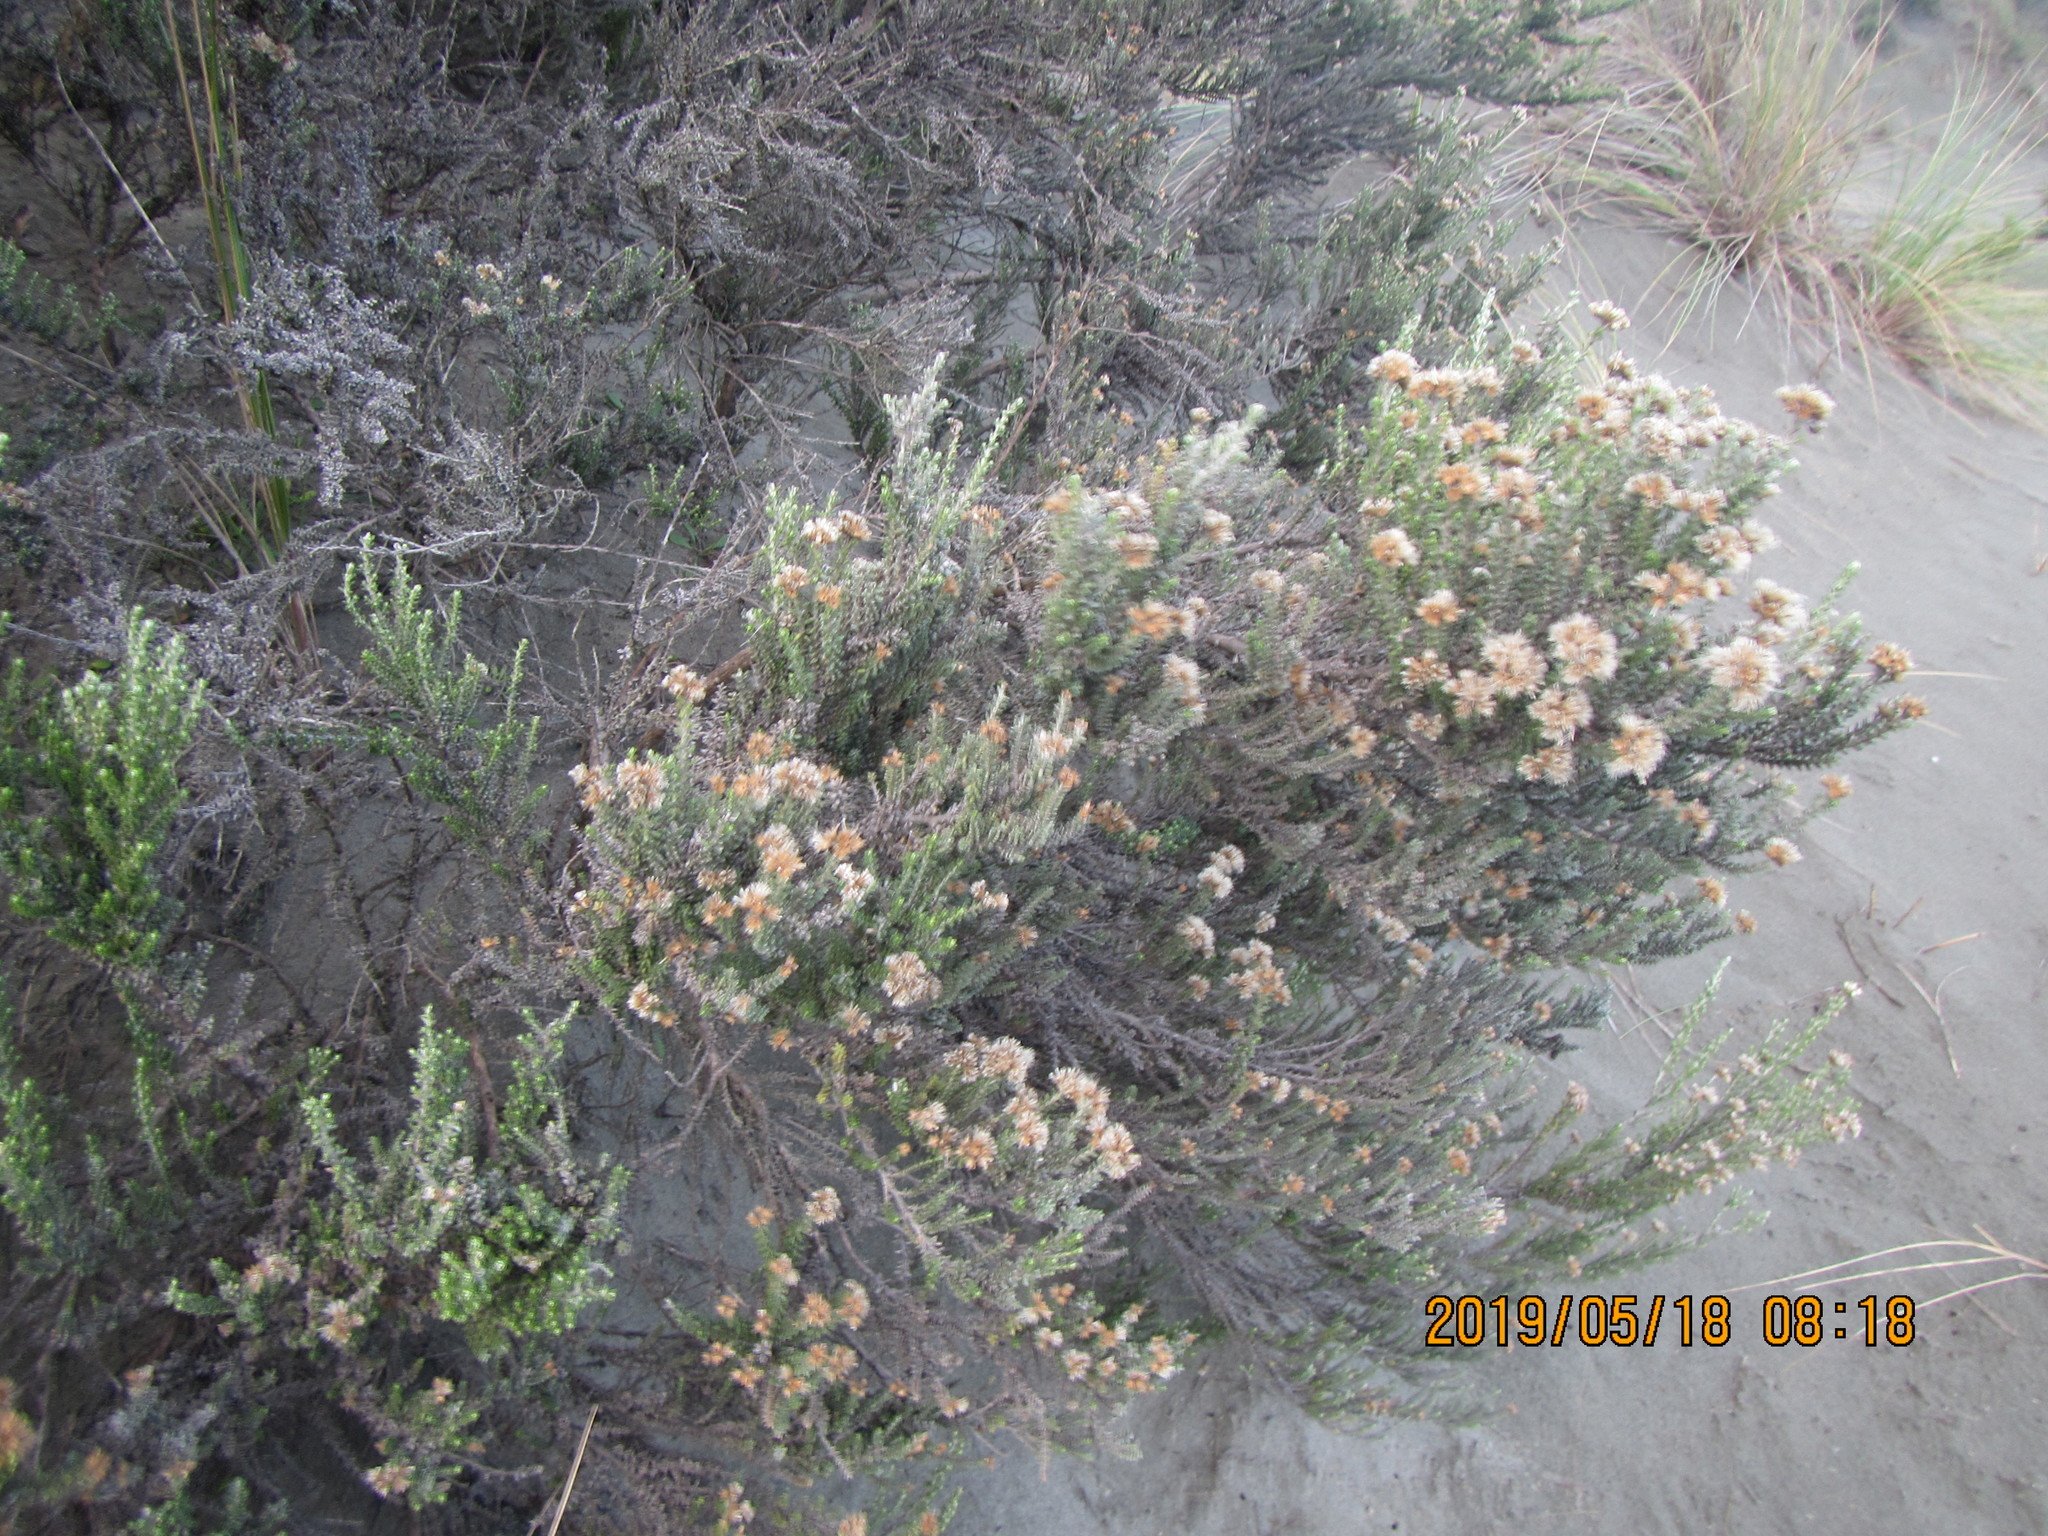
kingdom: Plantae
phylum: Tracheophyta
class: Magnoliopsida
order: Asterales
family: Asteraceae
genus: Ozothamnus
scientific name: Ozothamnus leptophyllus
